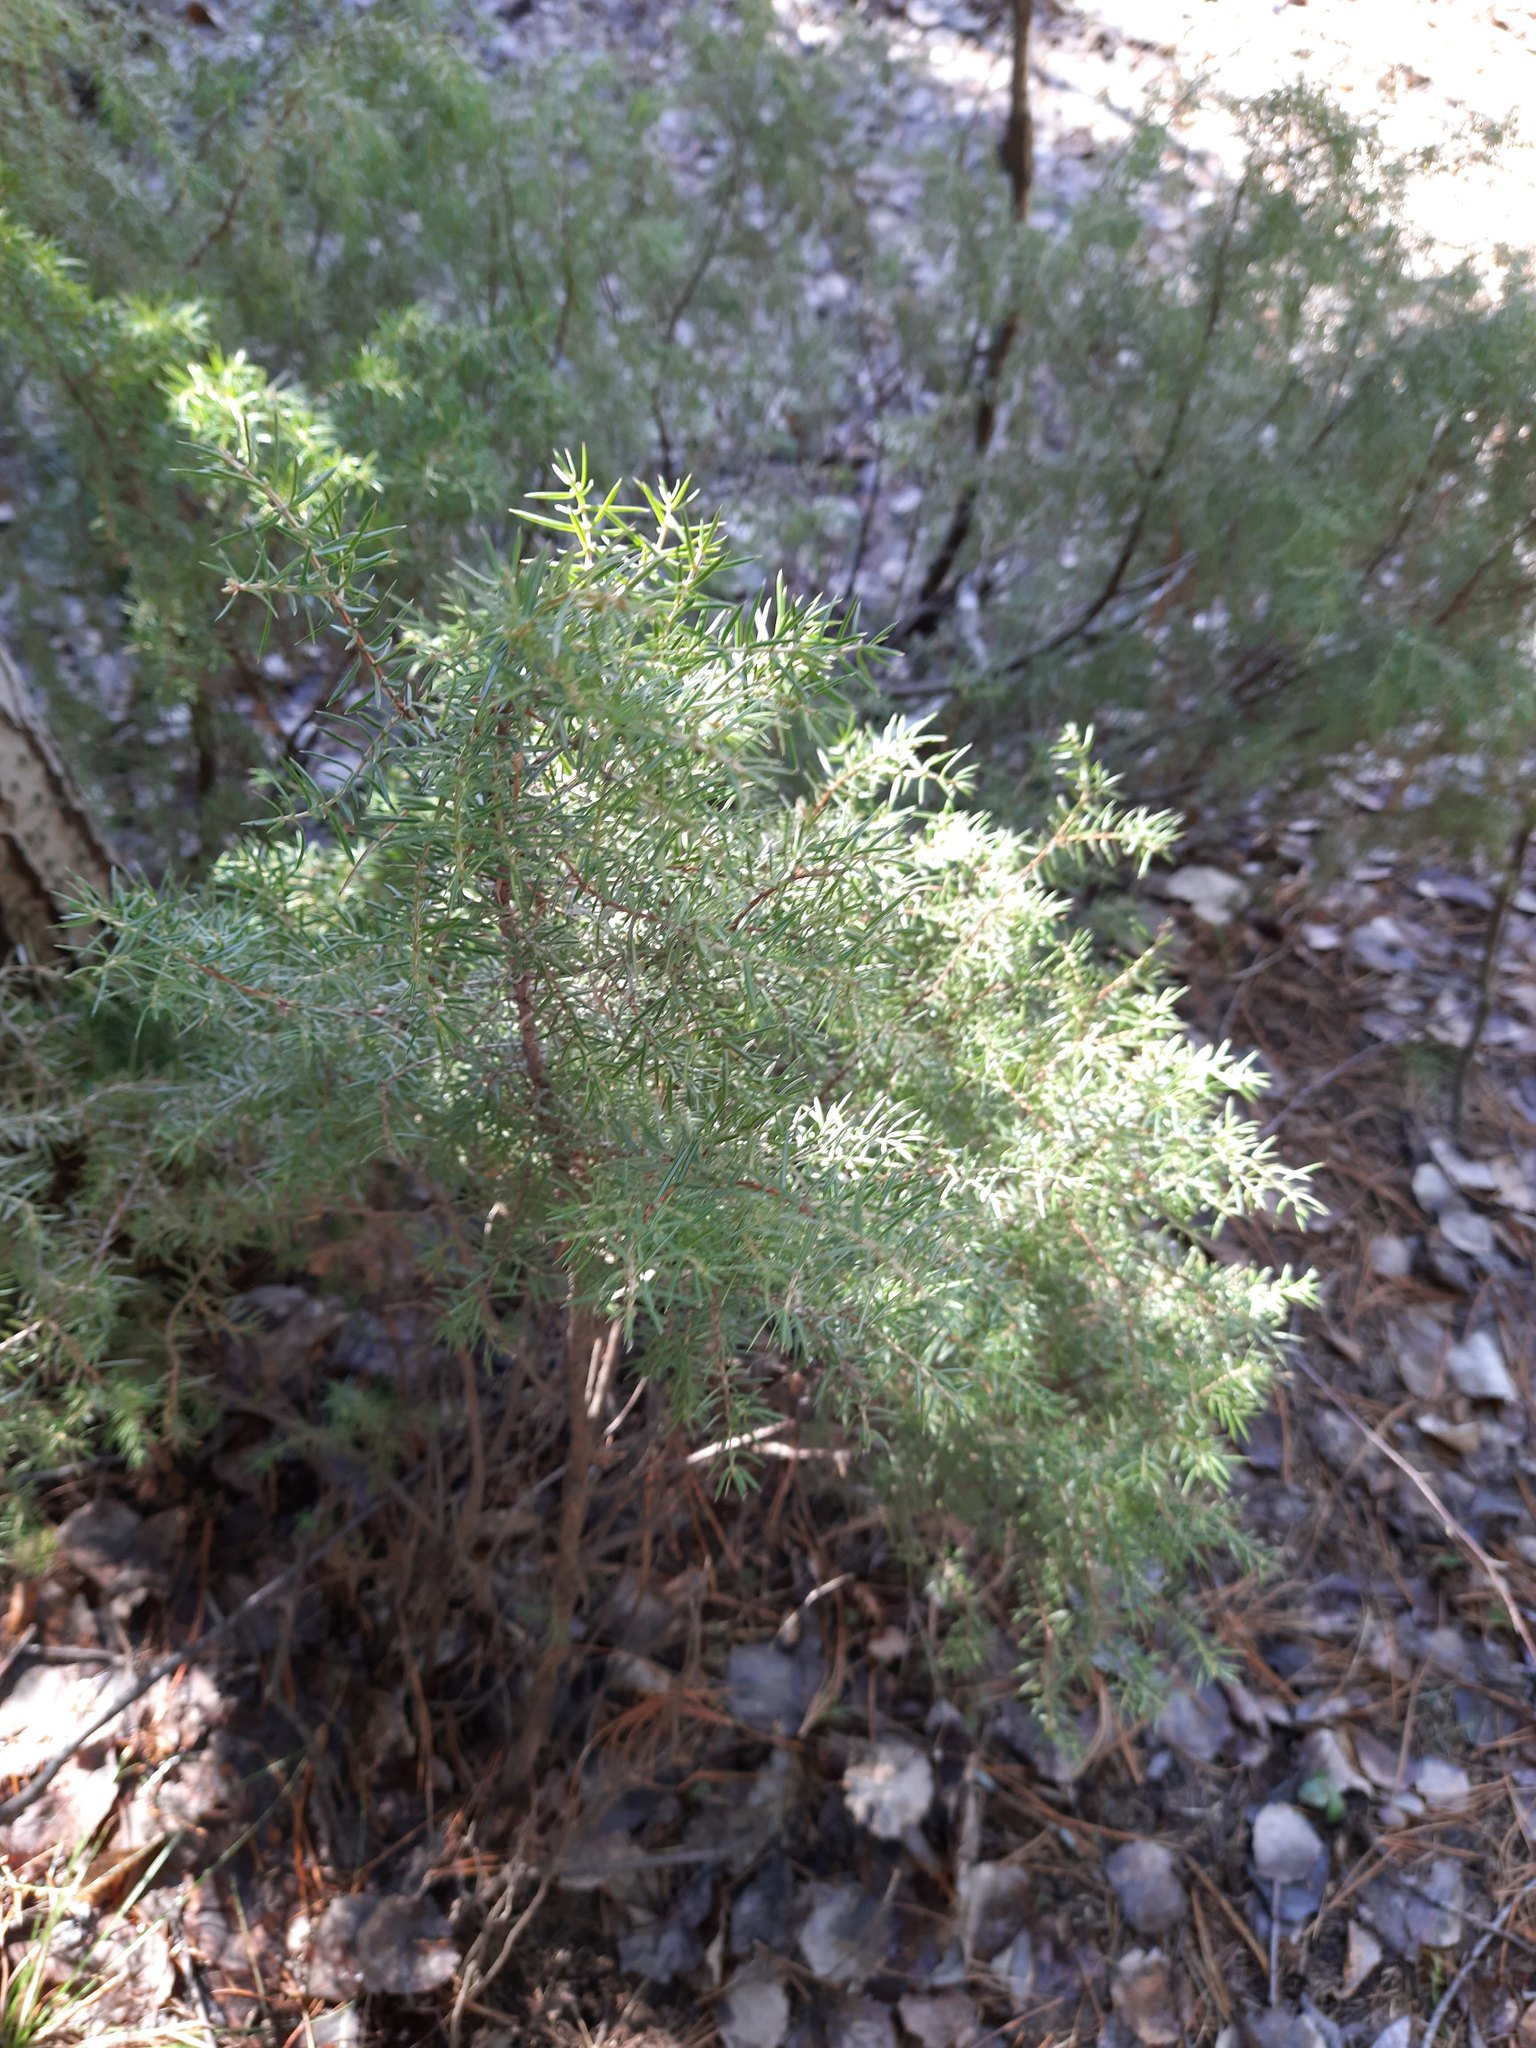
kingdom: Plantae
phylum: Tracheophyta
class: Pinopsida
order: Pinales
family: Cupressaceae
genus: Juniperus
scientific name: Juniperus communis
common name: Common juniper
